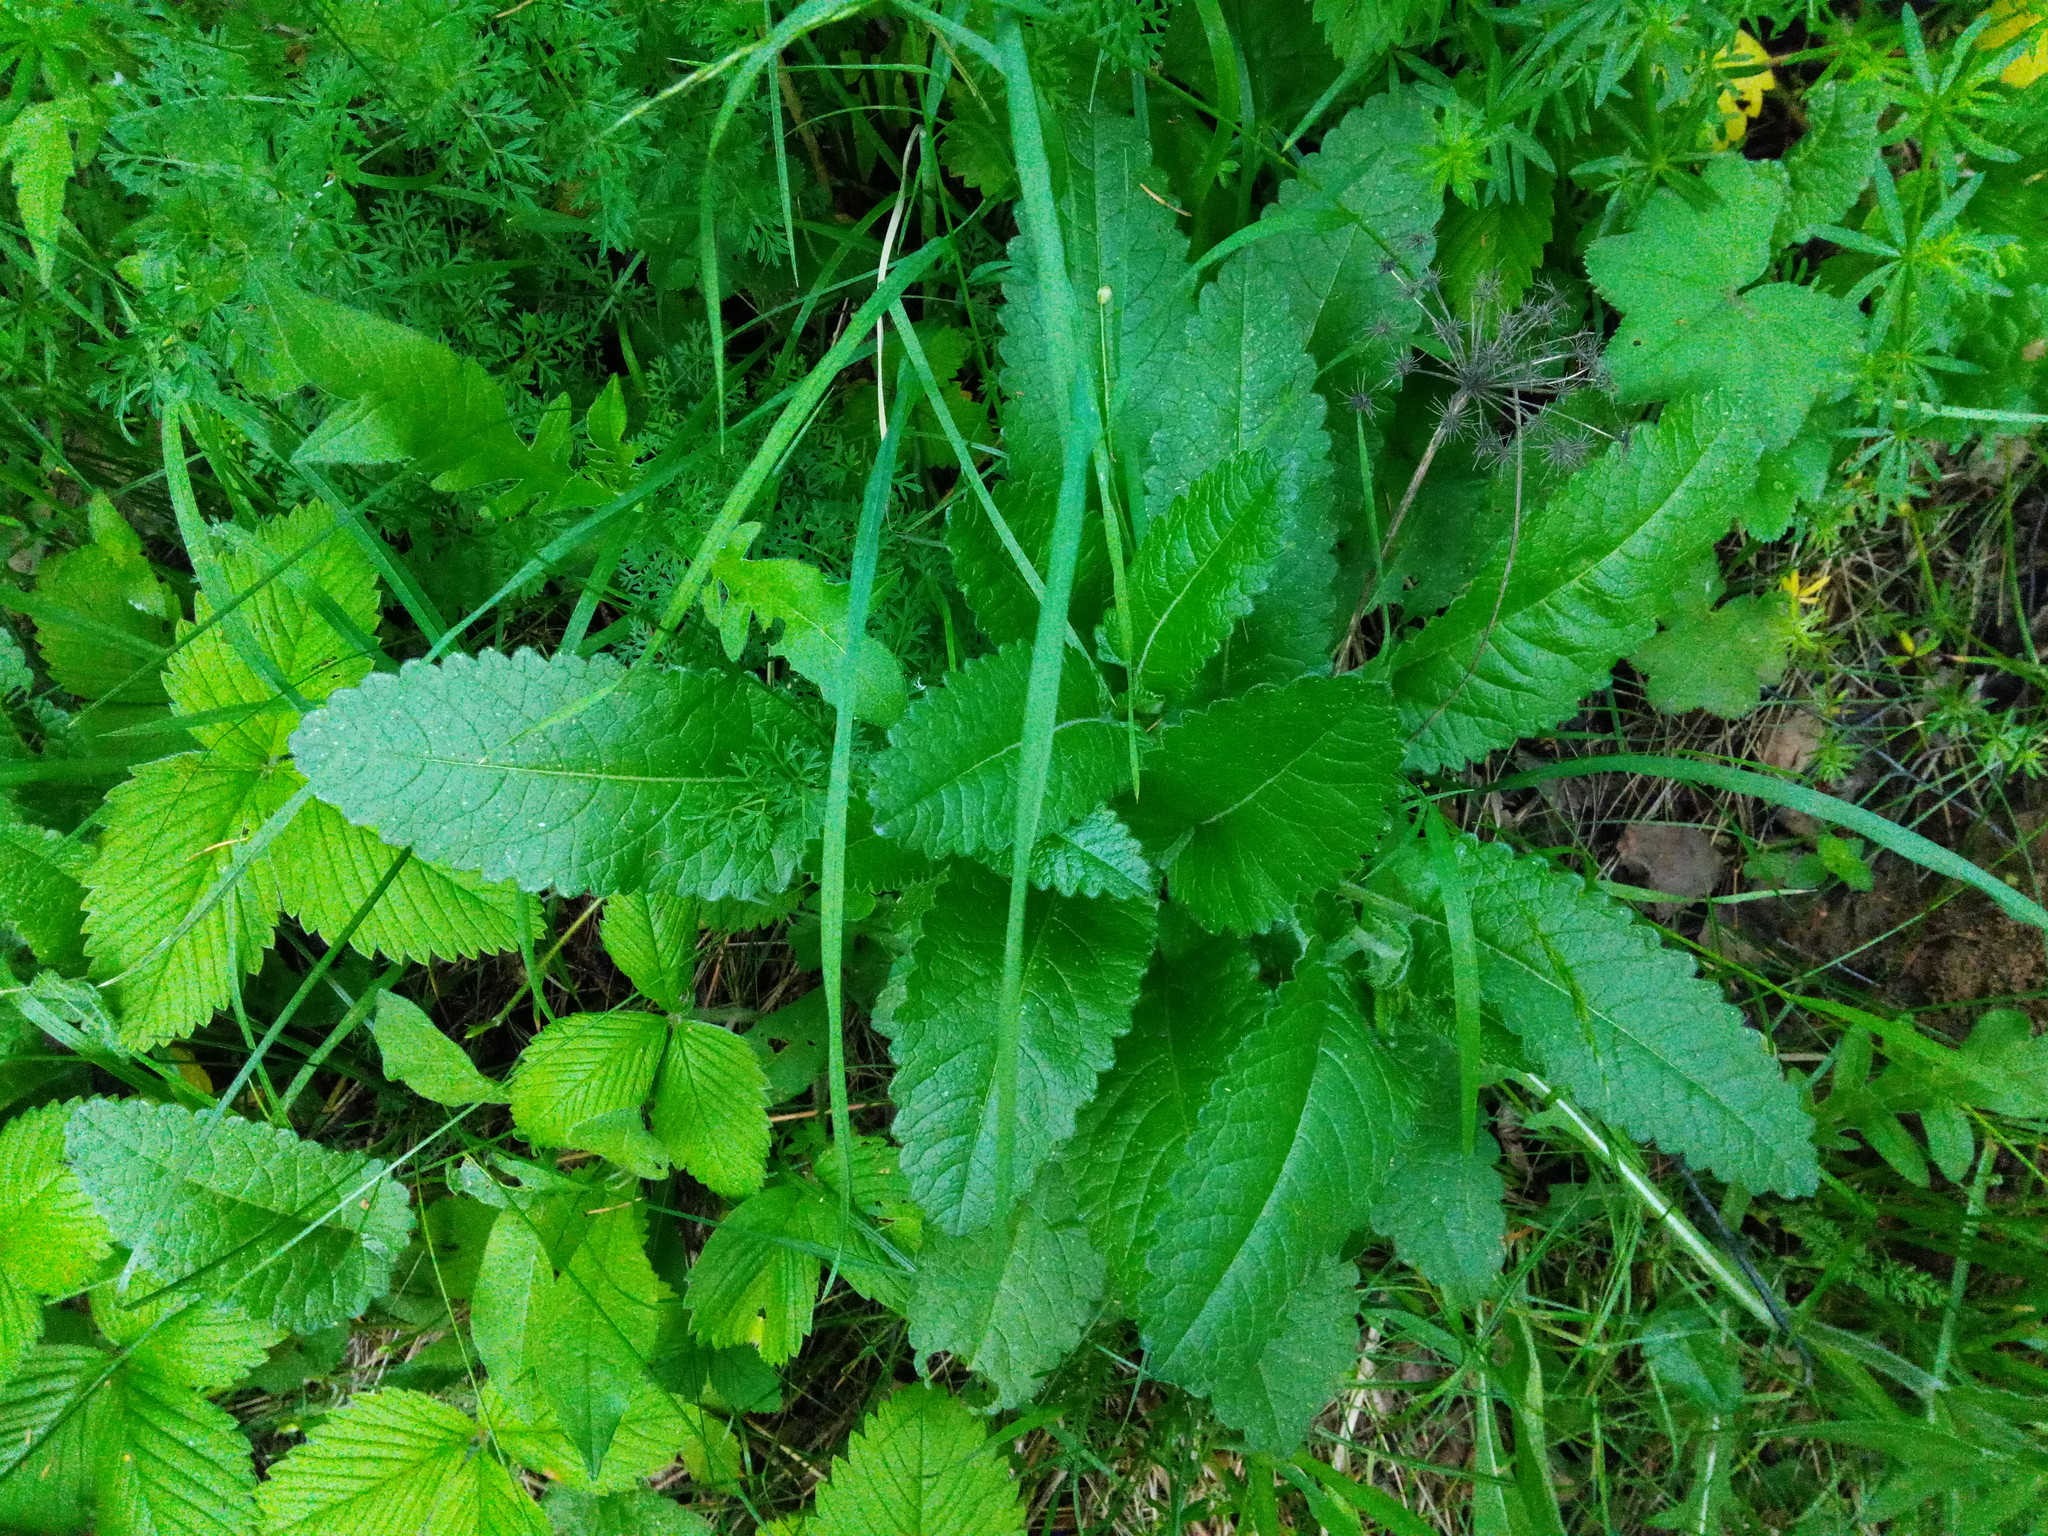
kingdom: Plantae
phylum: Tracheophyta
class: Magnoliopsida
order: Lamiales
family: Lamiaceae
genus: Betonica
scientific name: Betonica officinalis
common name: Bishop's-wort
